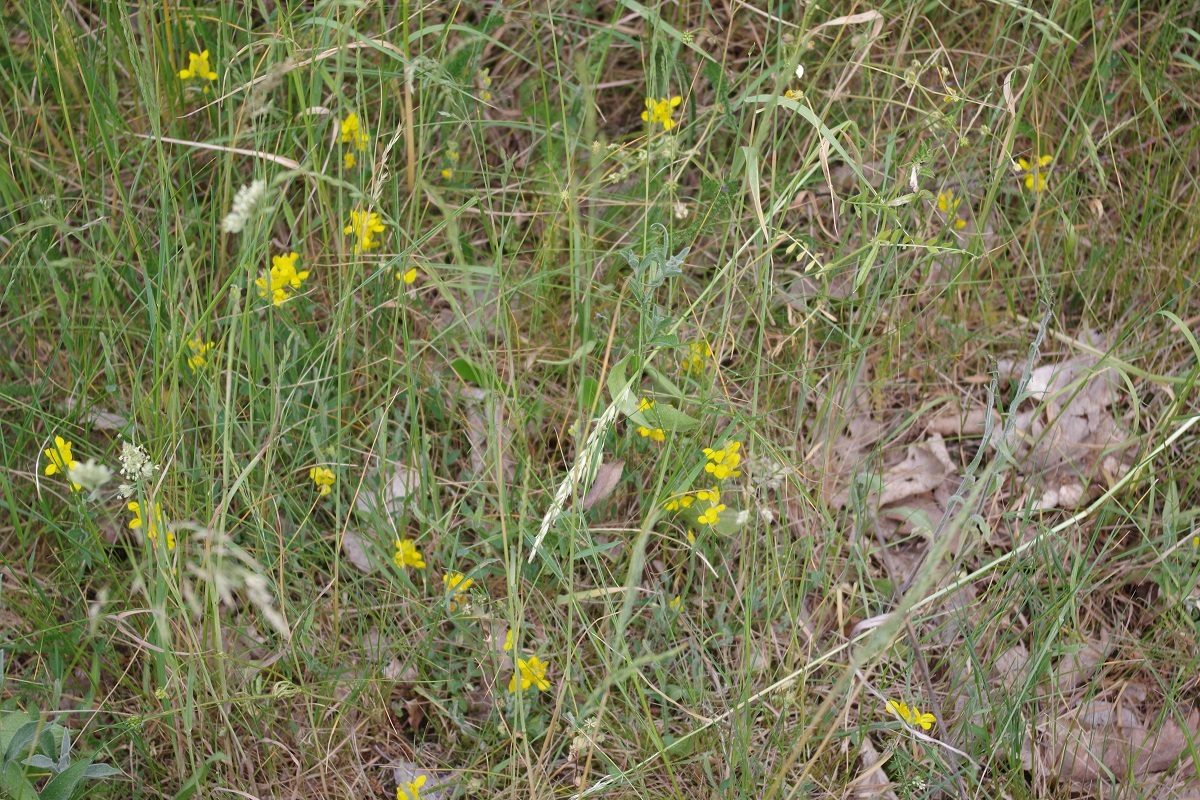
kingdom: Plantae
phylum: Tracheophyta
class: Magnoliopsida
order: Fabales
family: Fabaceae
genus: Genista
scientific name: Genista sagittalis
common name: Winged greenweed
